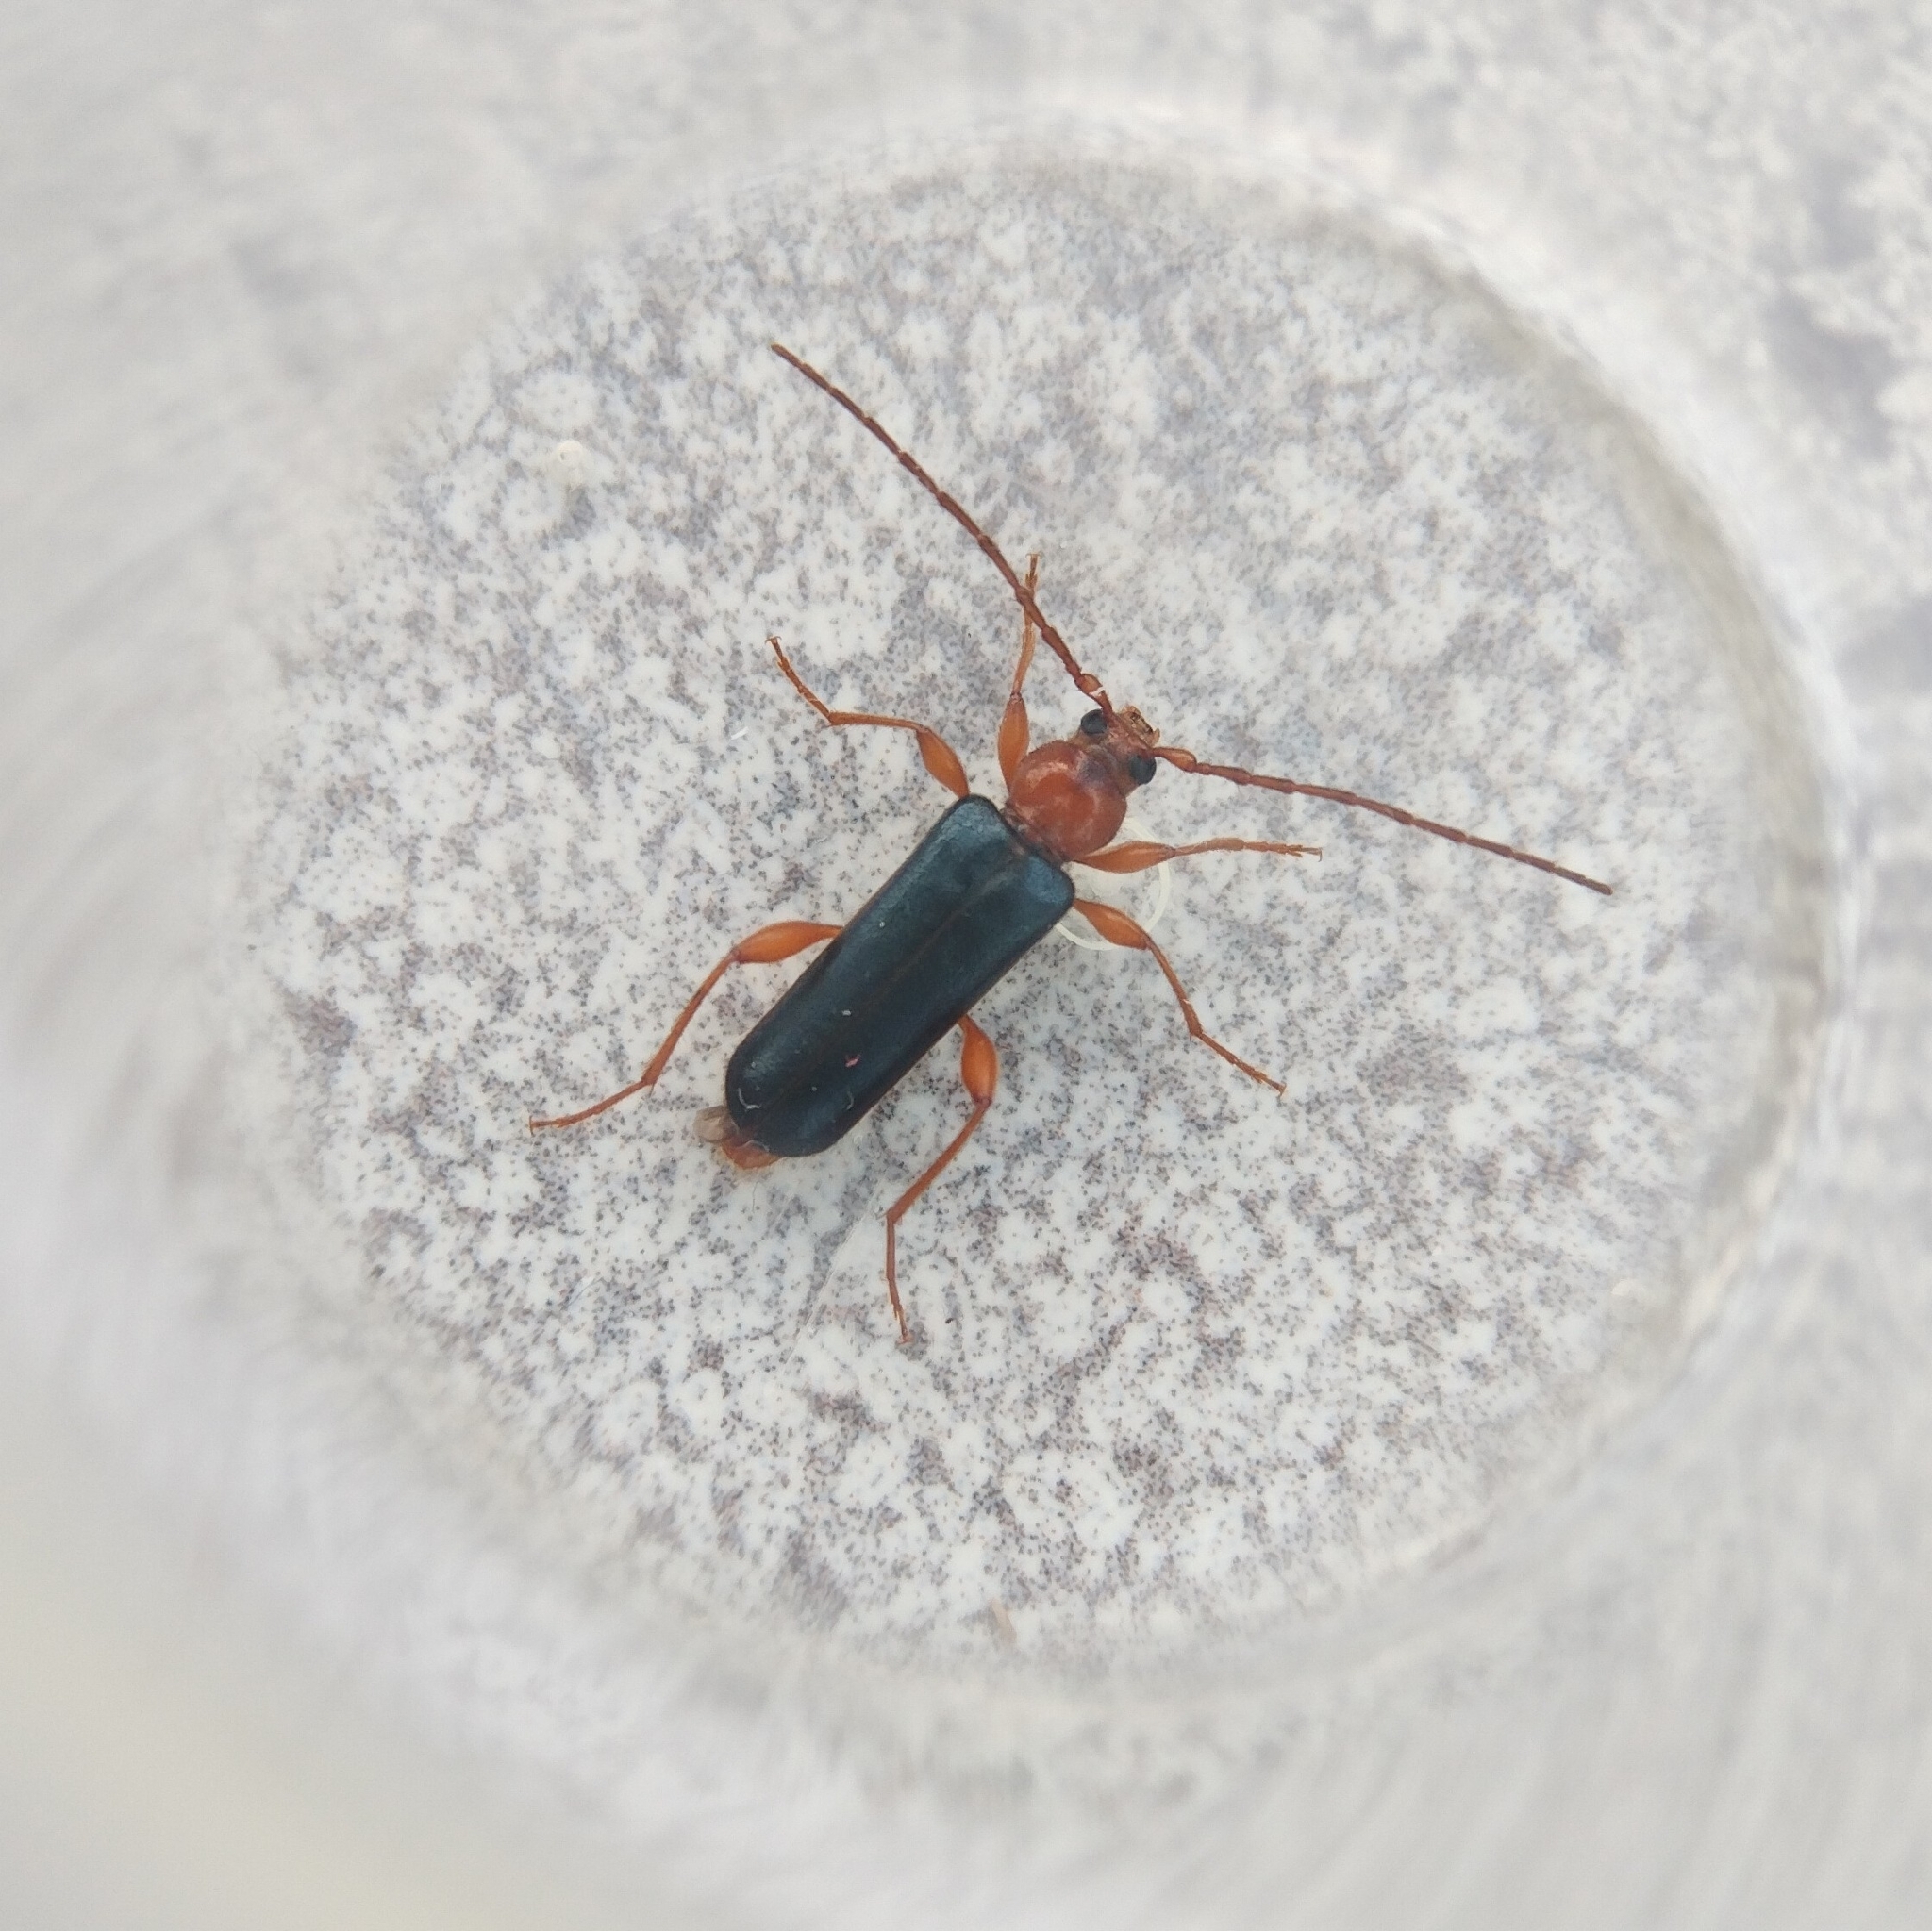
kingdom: Animalia
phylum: Arthropoda
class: Insecta
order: Coleoptera
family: Cerambycidae
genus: Phymatodes
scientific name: Phymatodes testaceus
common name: Long-horned beetle
